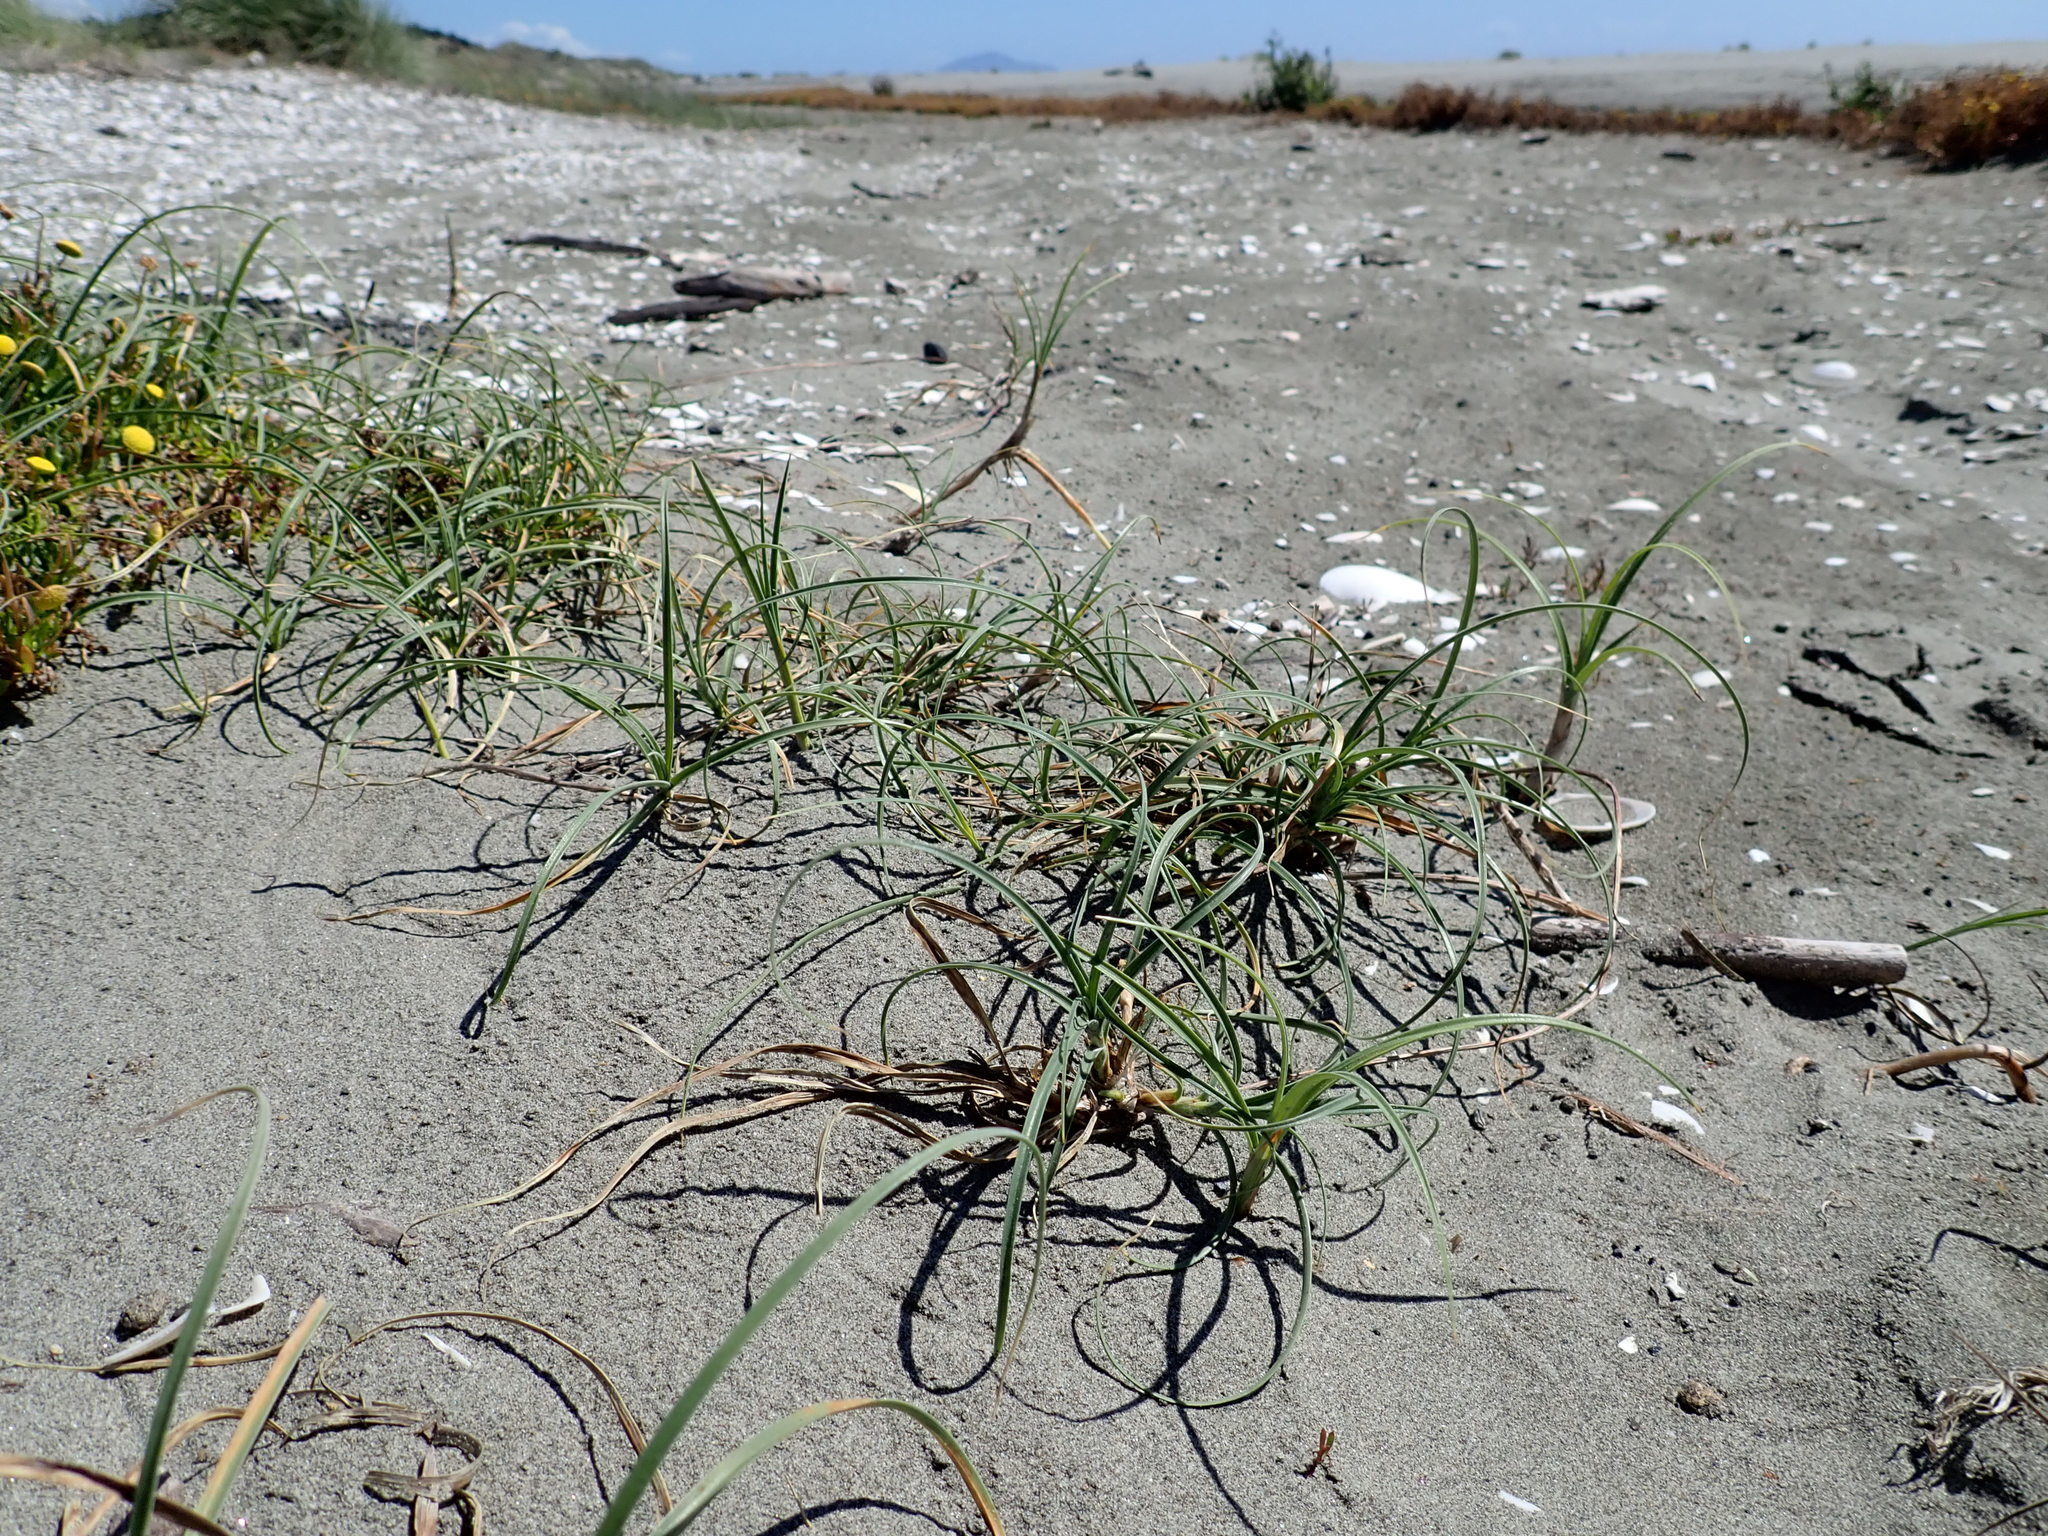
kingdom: Plantae
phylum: Tracheophyta
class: Liliopsida
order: Poales
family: Cyperaceae
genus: Carex
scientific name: Carex pumila
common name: Dwarf sedge
